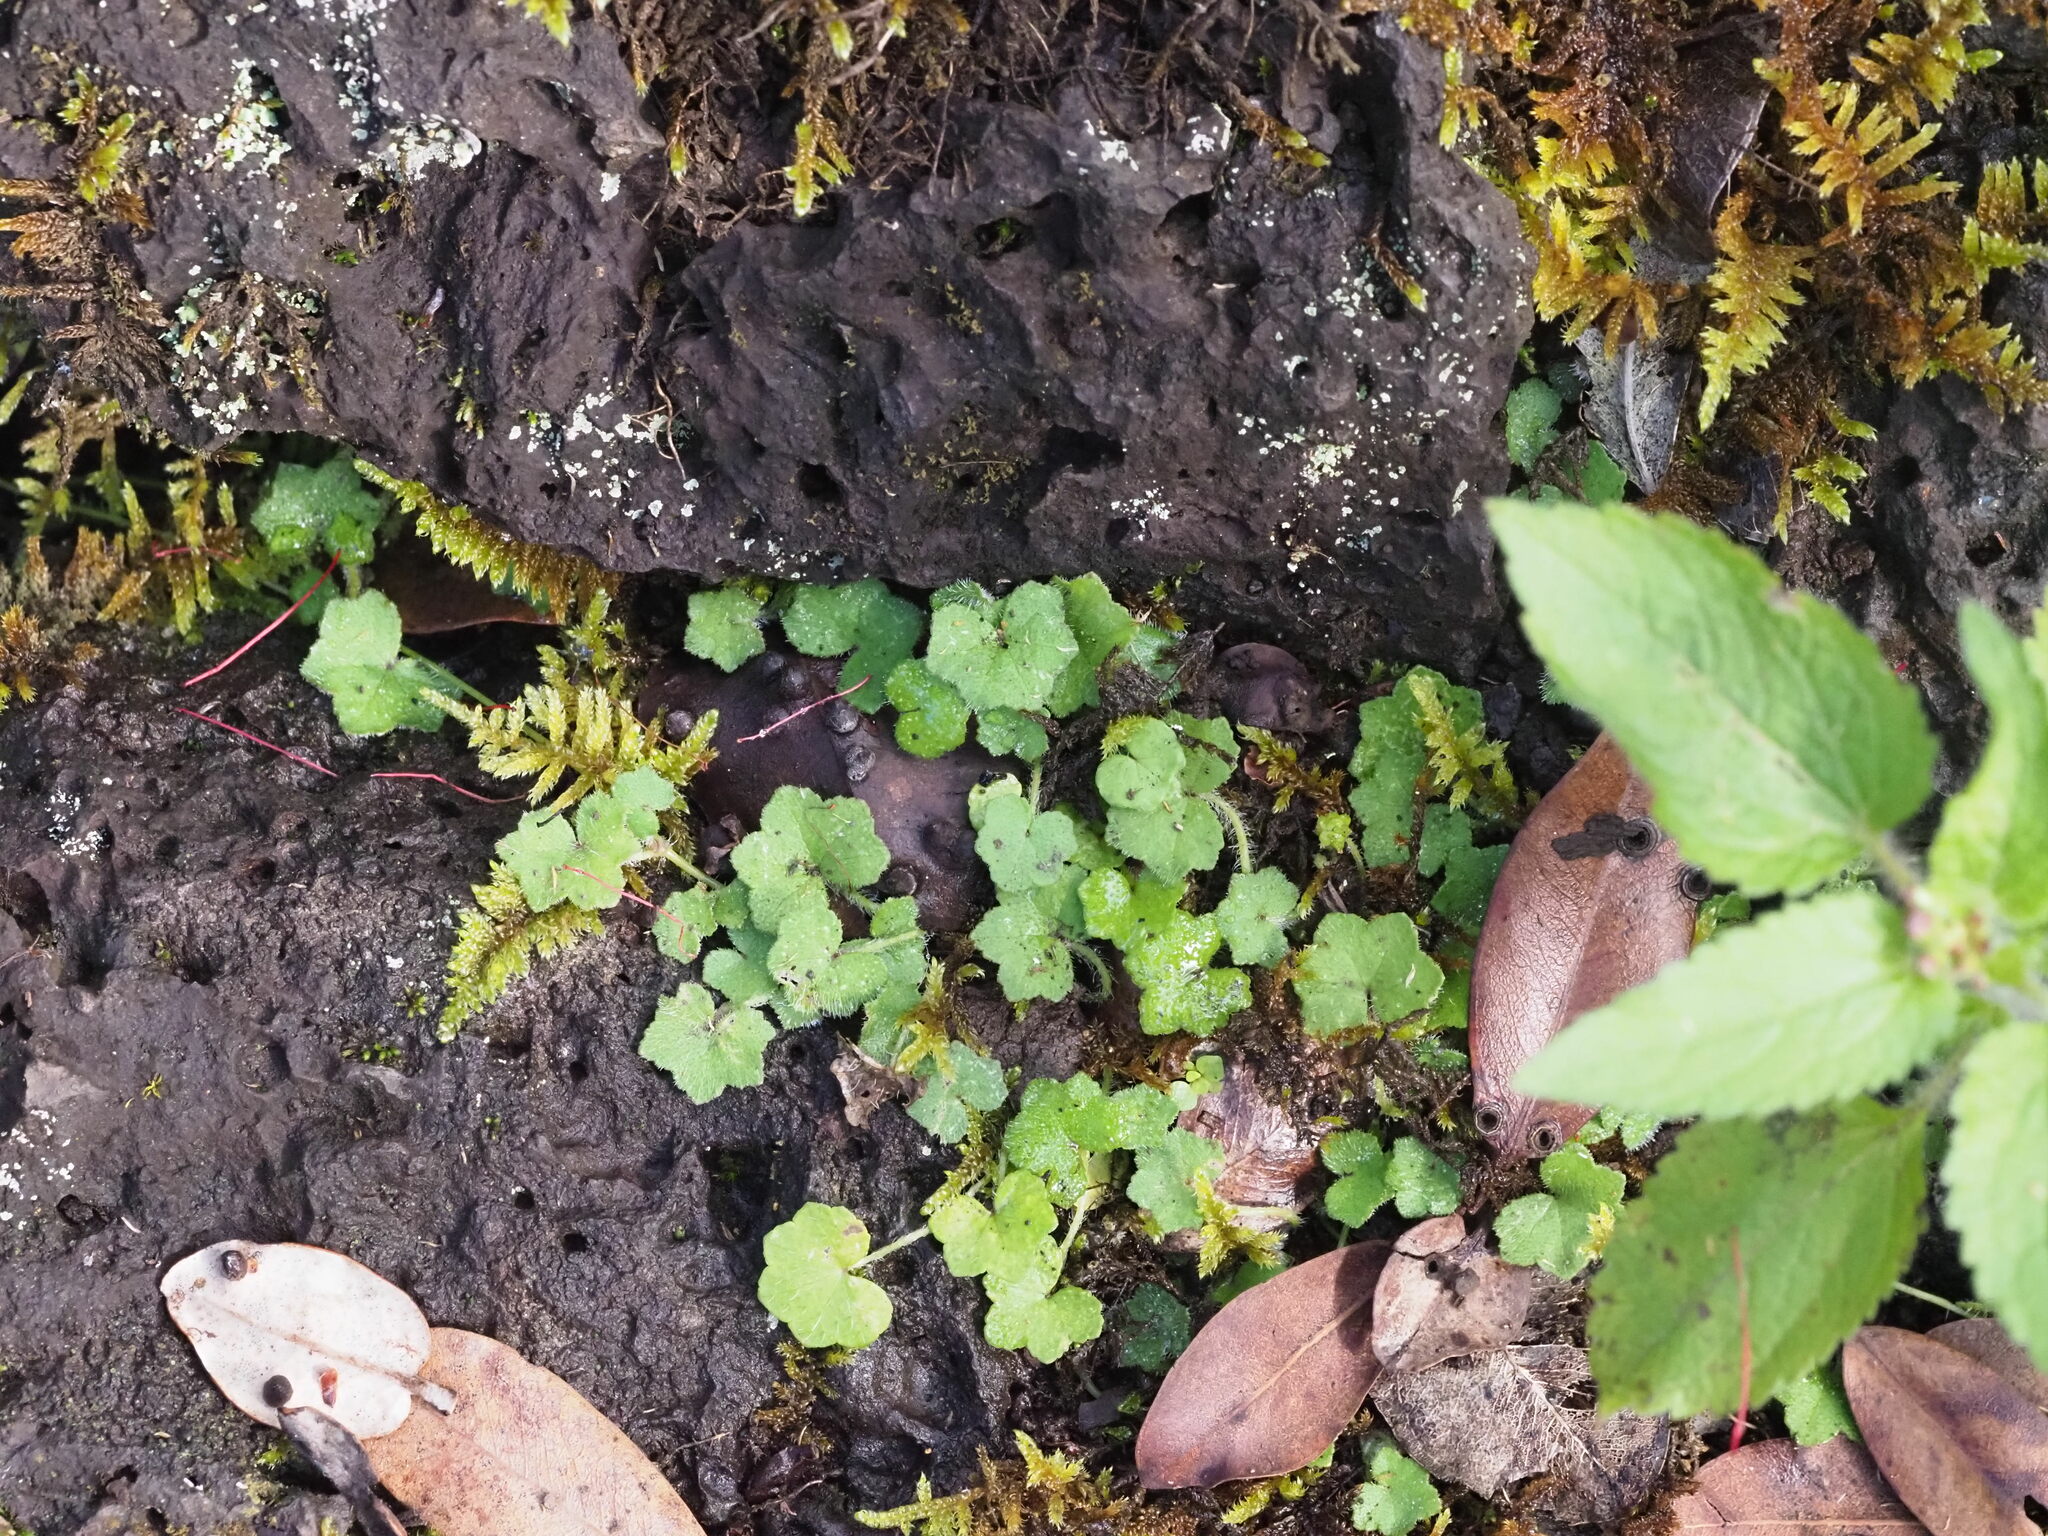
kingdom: Plantae
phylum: Tracheophyta
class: Magnoliopsida
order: Apiales
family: Araliaceae
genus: Hydrocotyle
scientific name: Hydrocotyle bowlesioides
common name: Largeleaf marshpennywort
